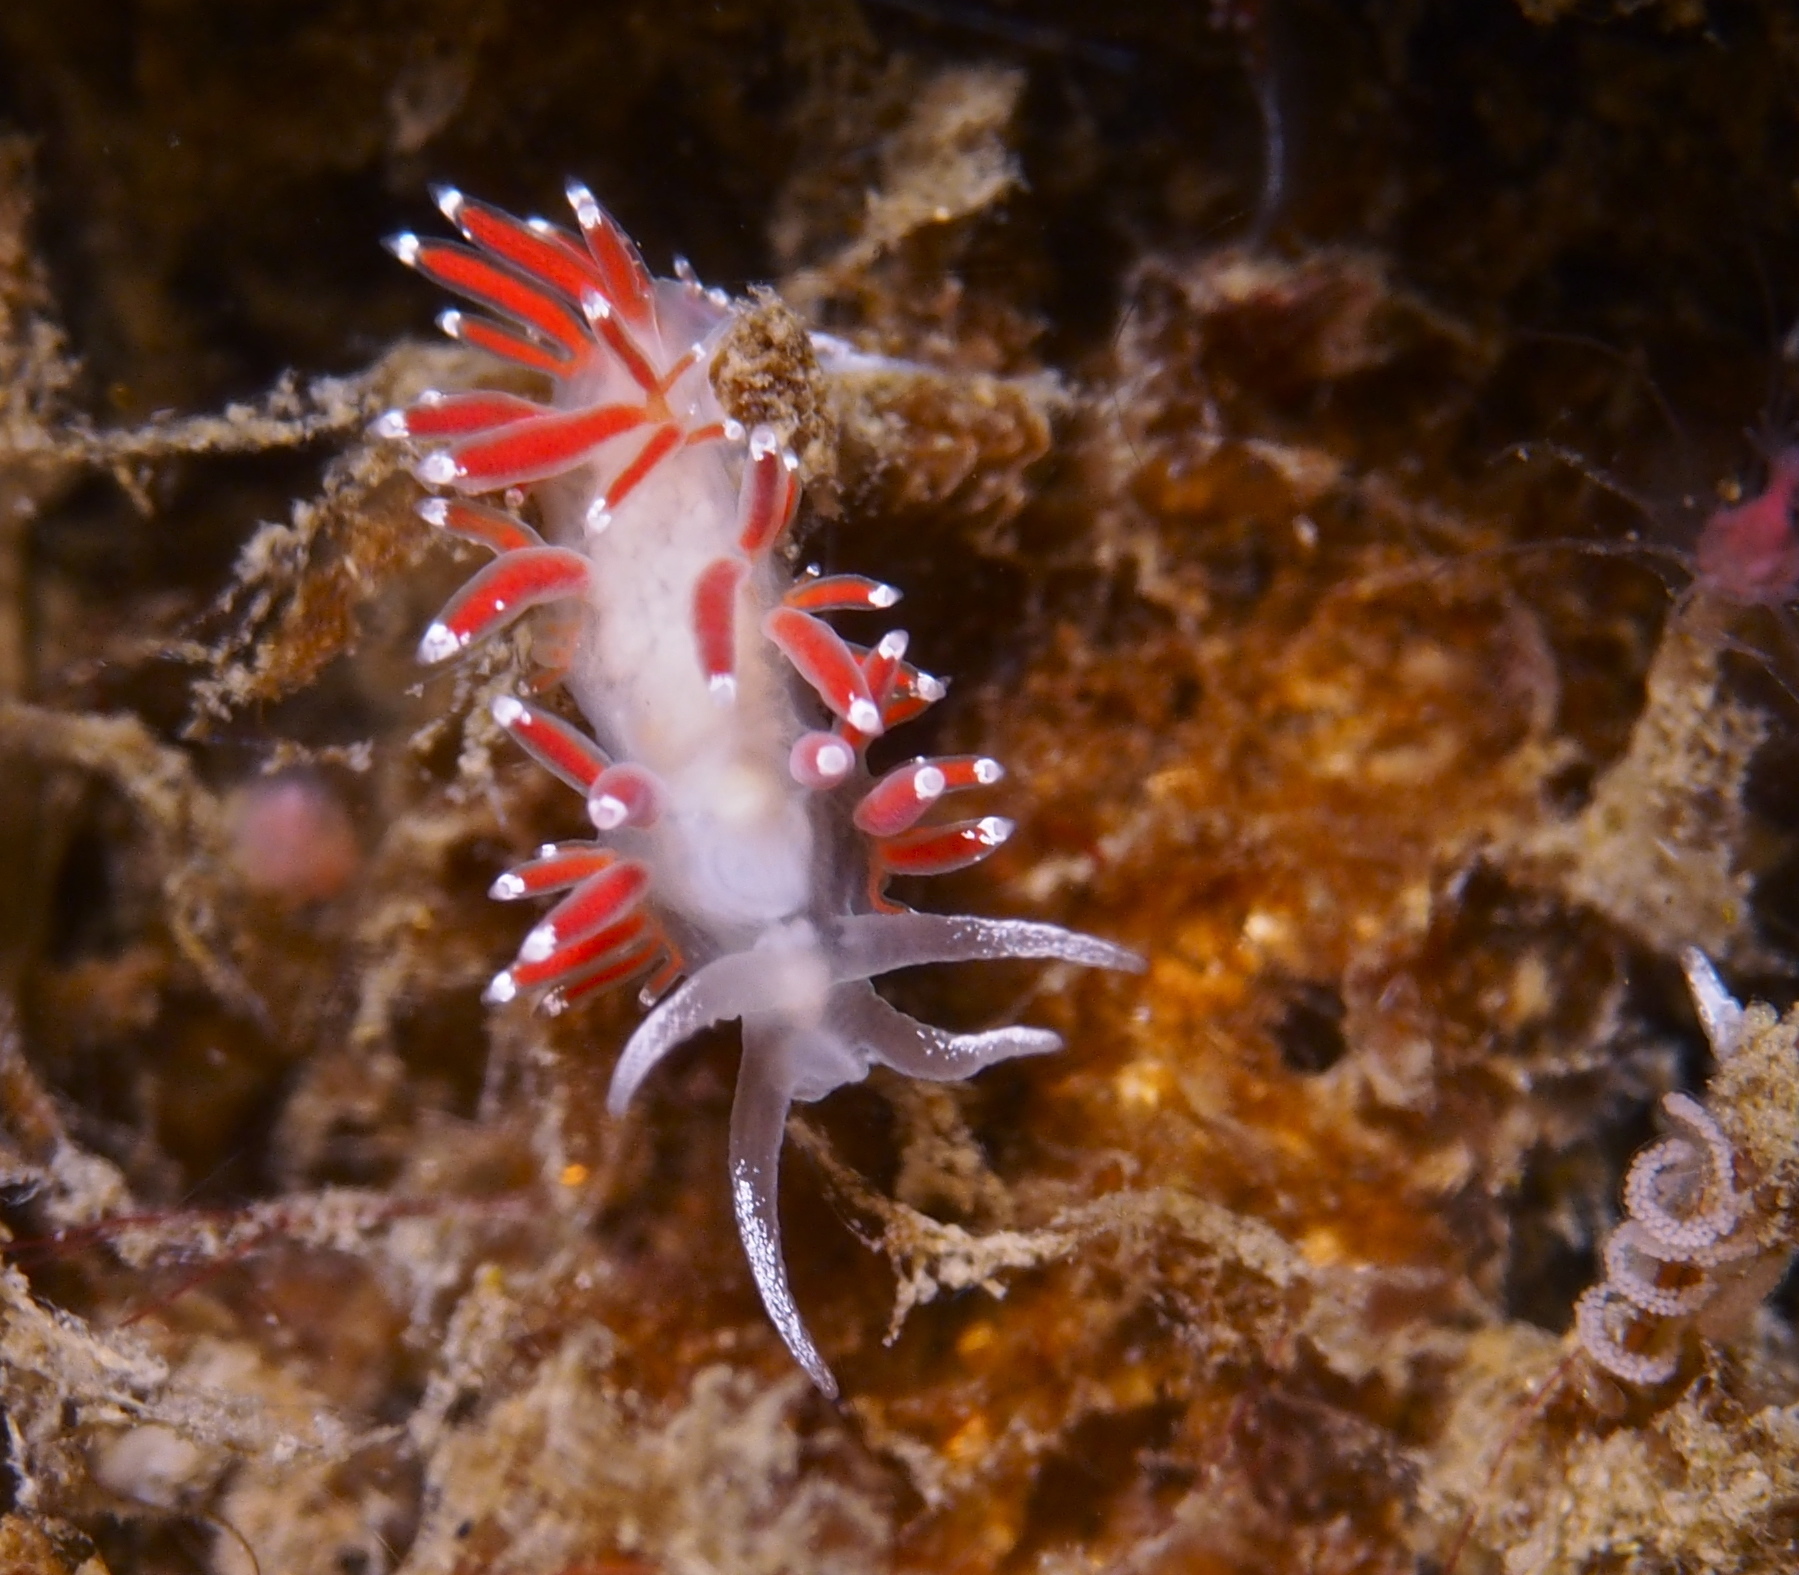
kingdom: Animalia
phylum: Mollusca
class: Gastropoda
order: Nudibranchia
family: Coryphellidae
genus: Coryphella
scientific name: Coryphella gracilis
